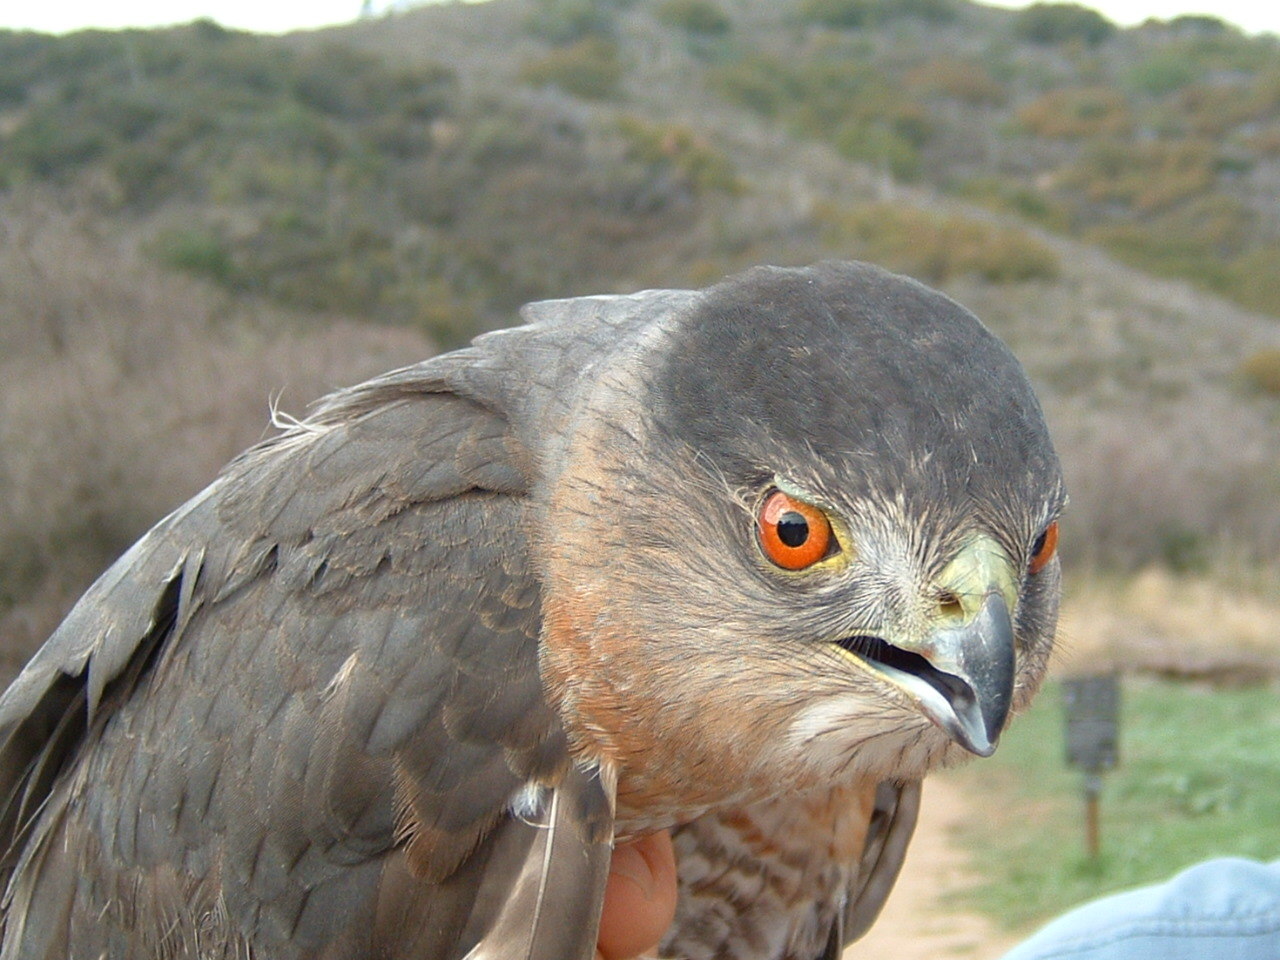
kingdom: Animalia
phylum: Chordata
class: Aves
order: Accipitriformes
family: Accipitridae
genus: Accipiter
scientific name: Accipiter cooperii
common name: Cooper's hawk
